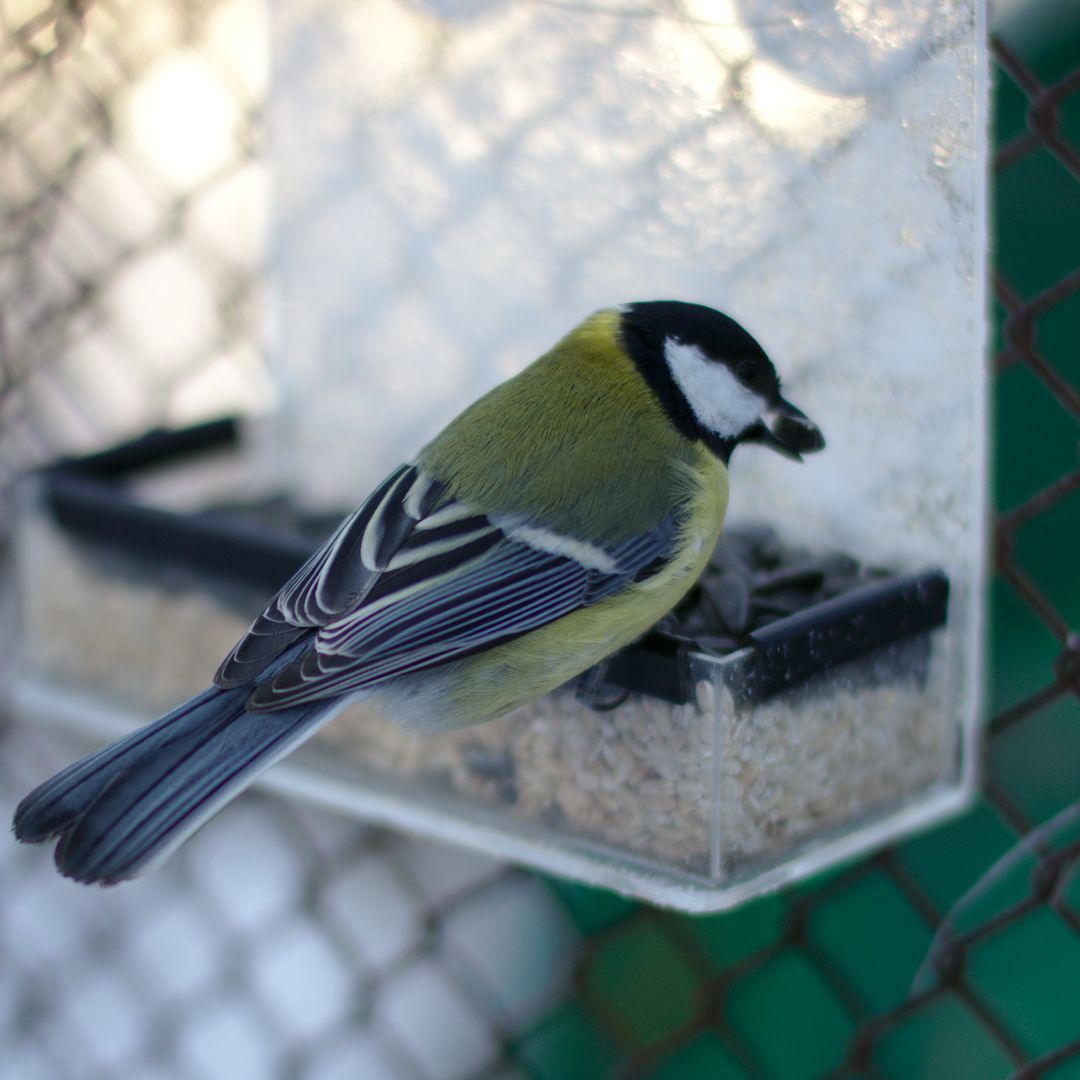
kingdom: Animalia
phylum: Chordata
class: Aves
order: Passeriformes
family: Paridae
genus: Parus
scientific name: Parus major
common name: Great tit
